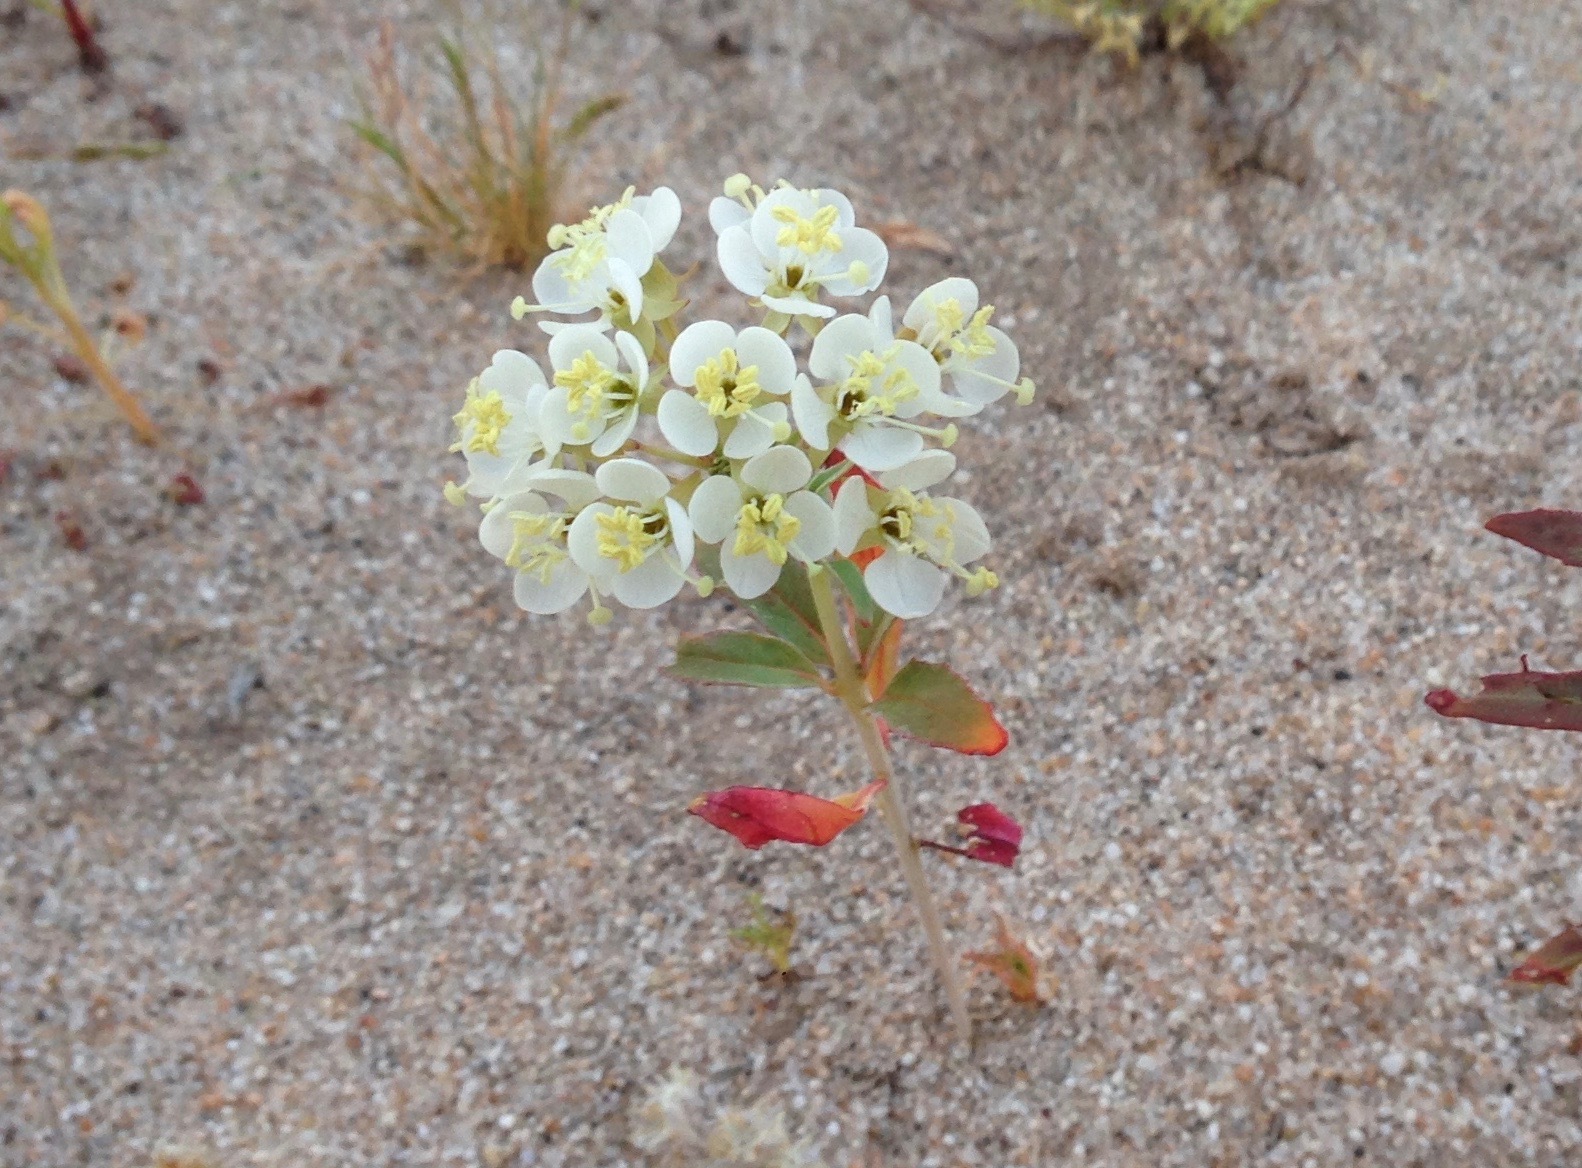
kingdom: Plantae
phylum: Tracheophyta
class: Magnoliopsida
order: Myrtales
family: Onagraceae
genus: Eremothera
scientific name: Eremothera boothii
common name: Booth's evening primrose
